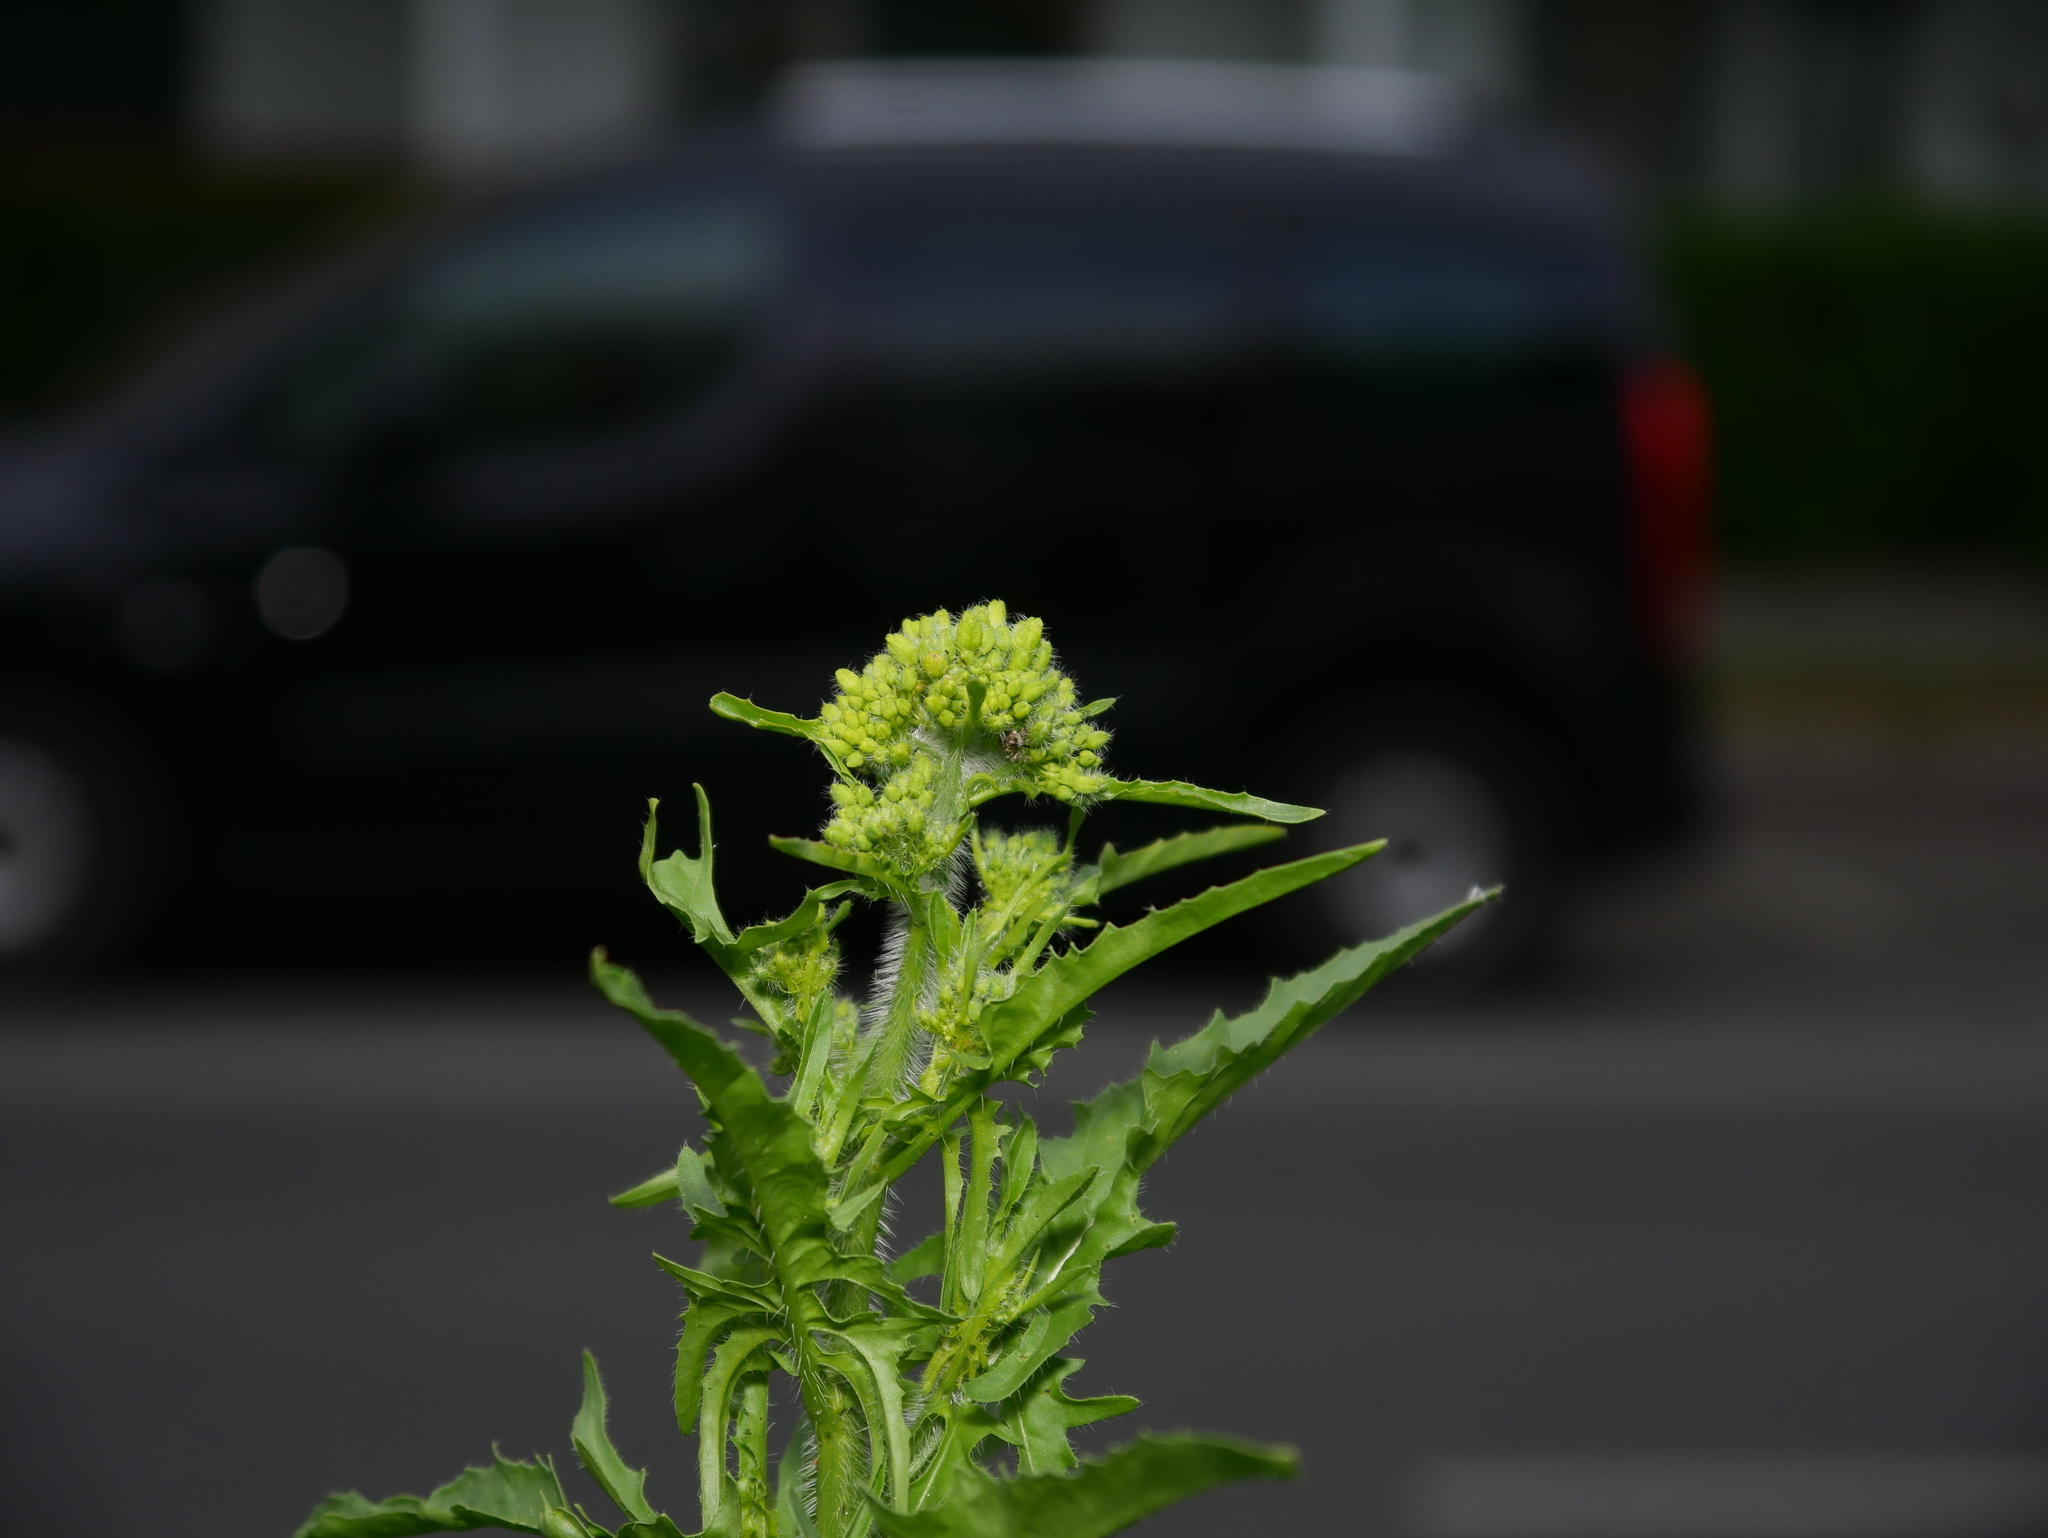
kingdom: Plantae
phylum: Tracheophyta
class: Magnoliopsida
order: Brassicales
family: Brassicaceae
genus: Sisymbrium
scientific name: Sisymbrium loeselii
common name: False london-rocket
